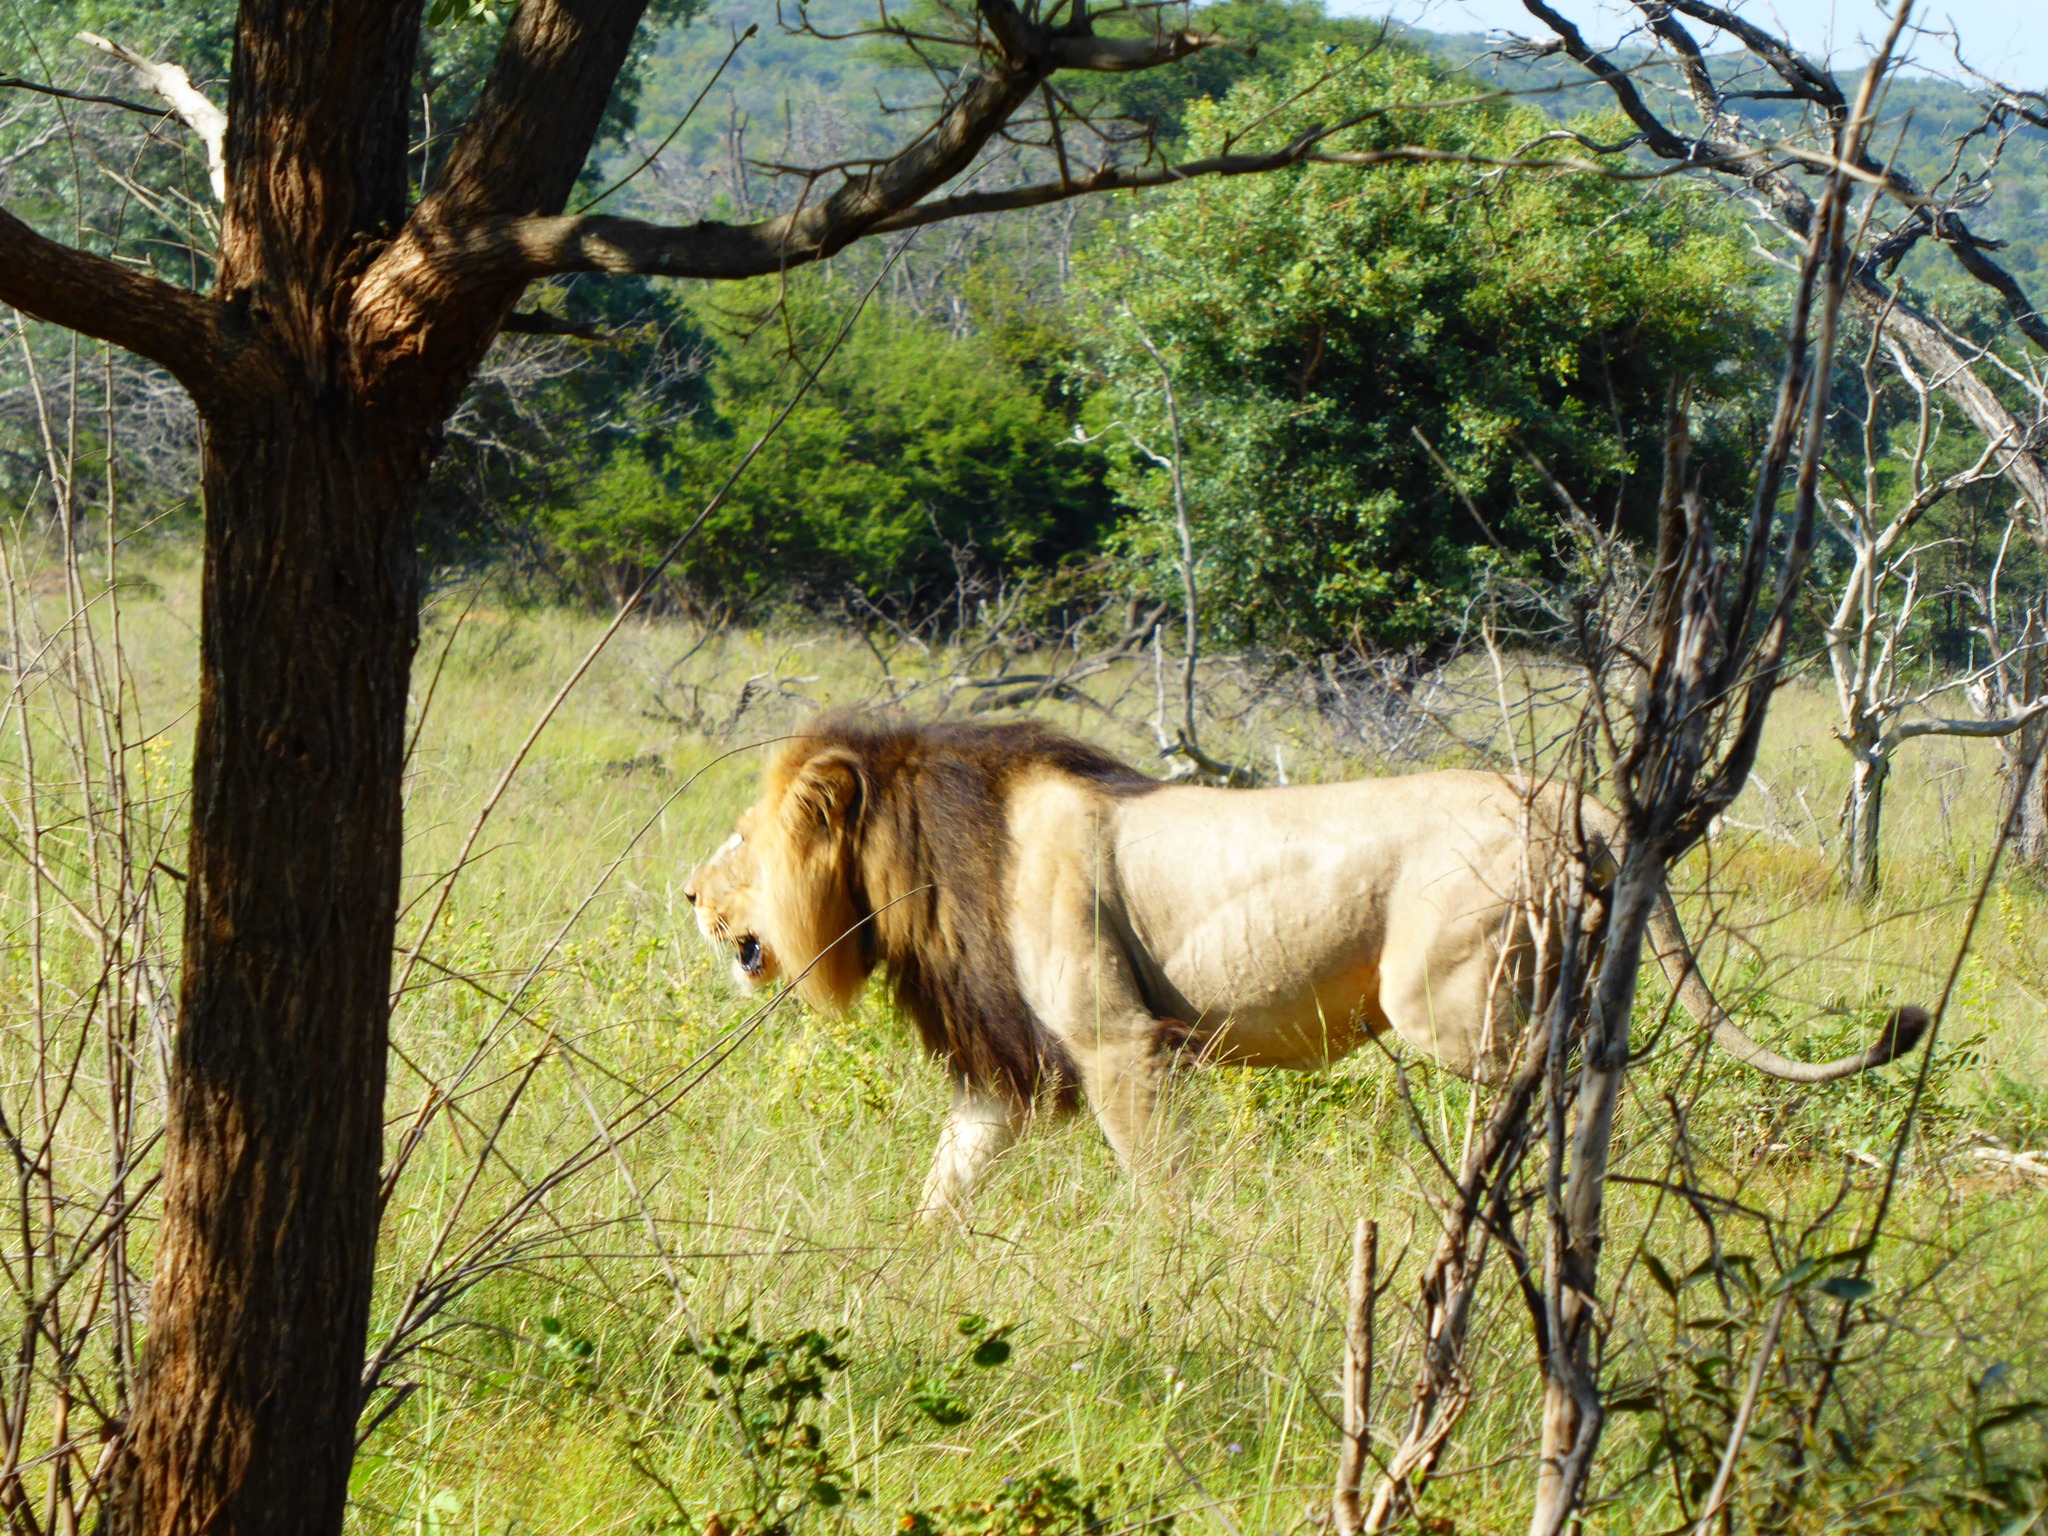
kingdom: Animalia
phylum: Chordata
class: Mammalia
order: Carnivora
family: Felidae
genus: Panthera
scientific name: Panthera leo
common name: Lion
